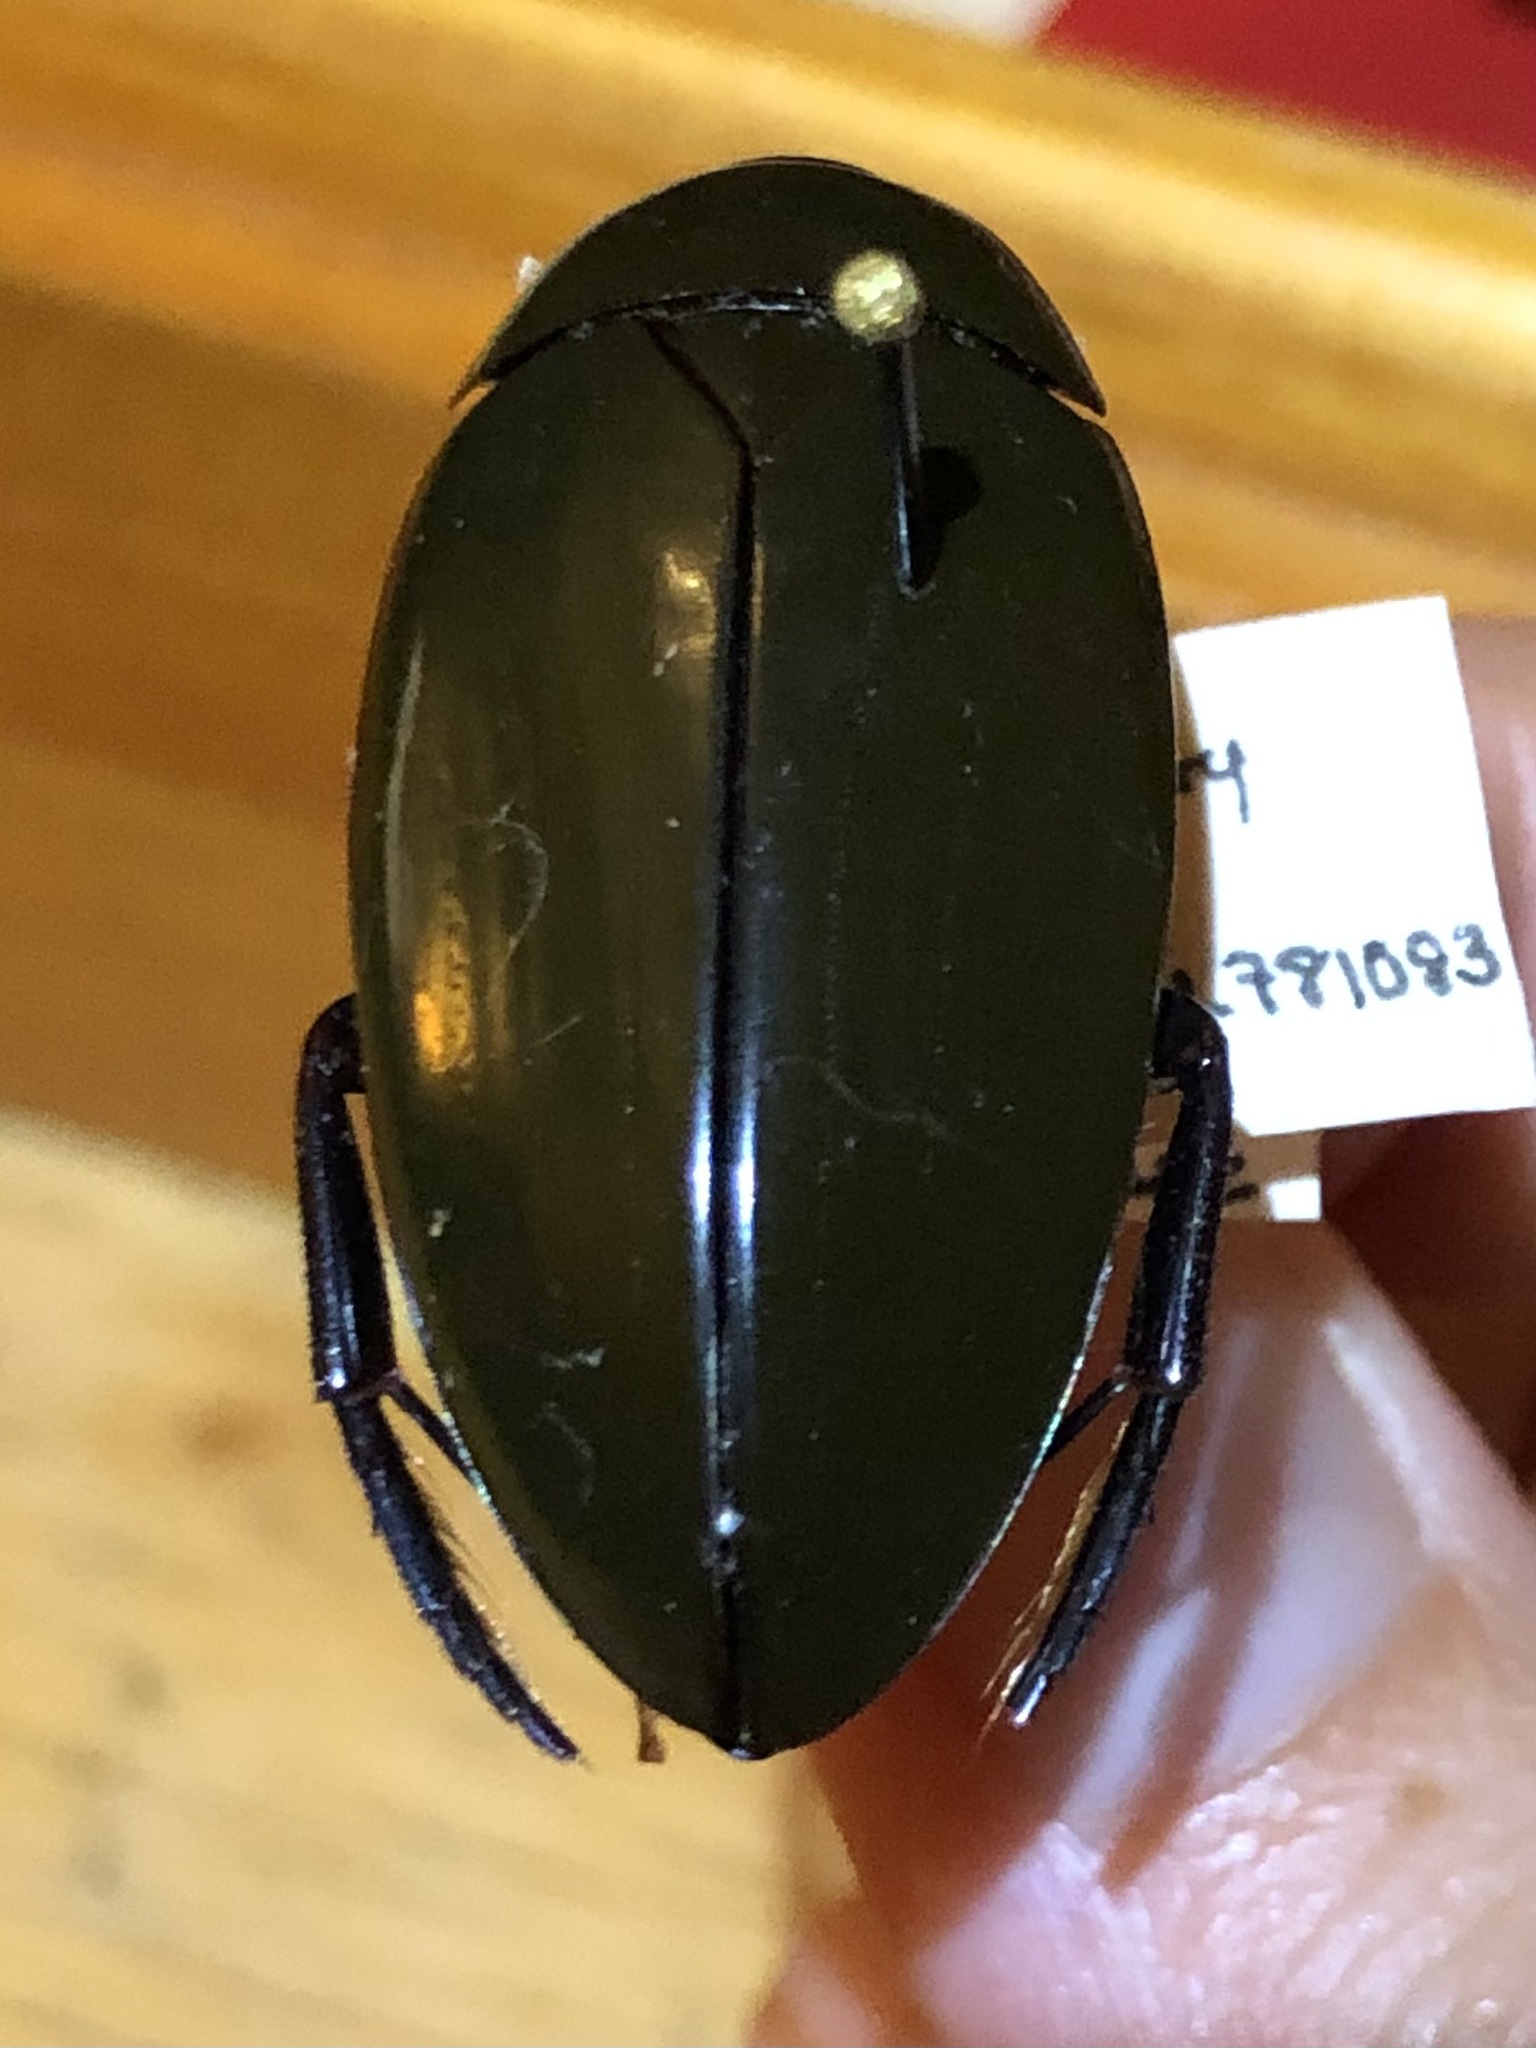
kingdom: Animalia
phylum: Arthropoda
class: Insecta
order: Coleoptera
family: Hydrophilidae
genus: Hydrophilus
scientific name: Hydrophilus triangularis
